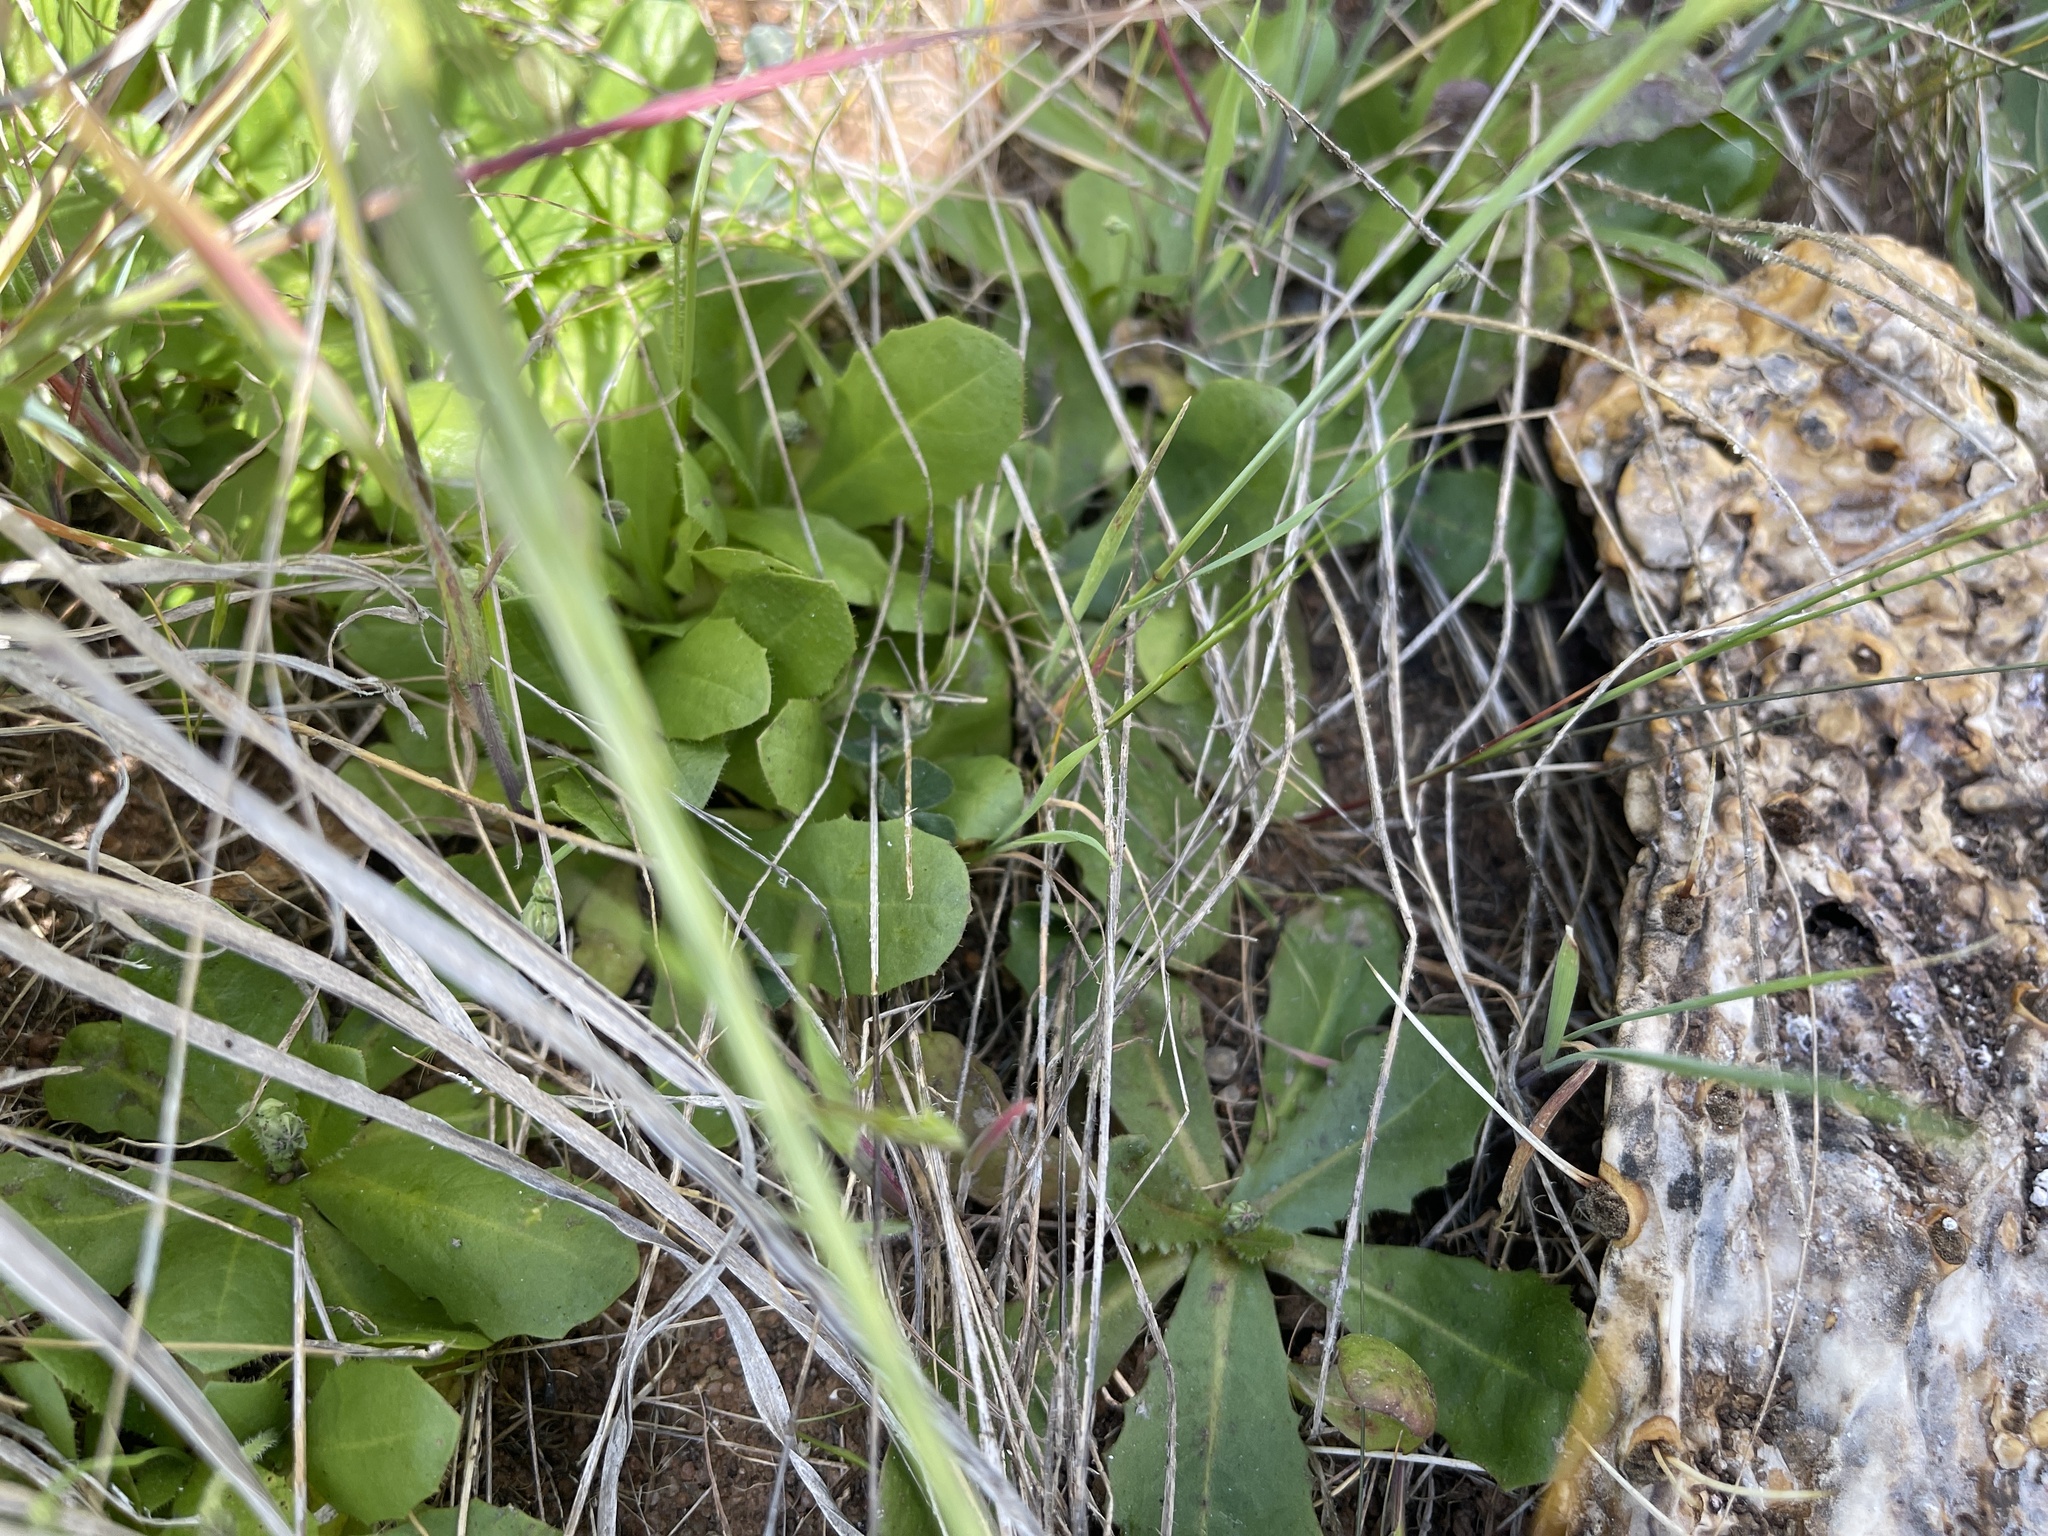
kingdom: Plantae
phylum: Tracheophyta
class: Magnoliopsida
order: Asterales
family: Asteraceae
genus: Hypochaeris
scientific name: Hypochaeris glabra
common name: Smooth catsear
